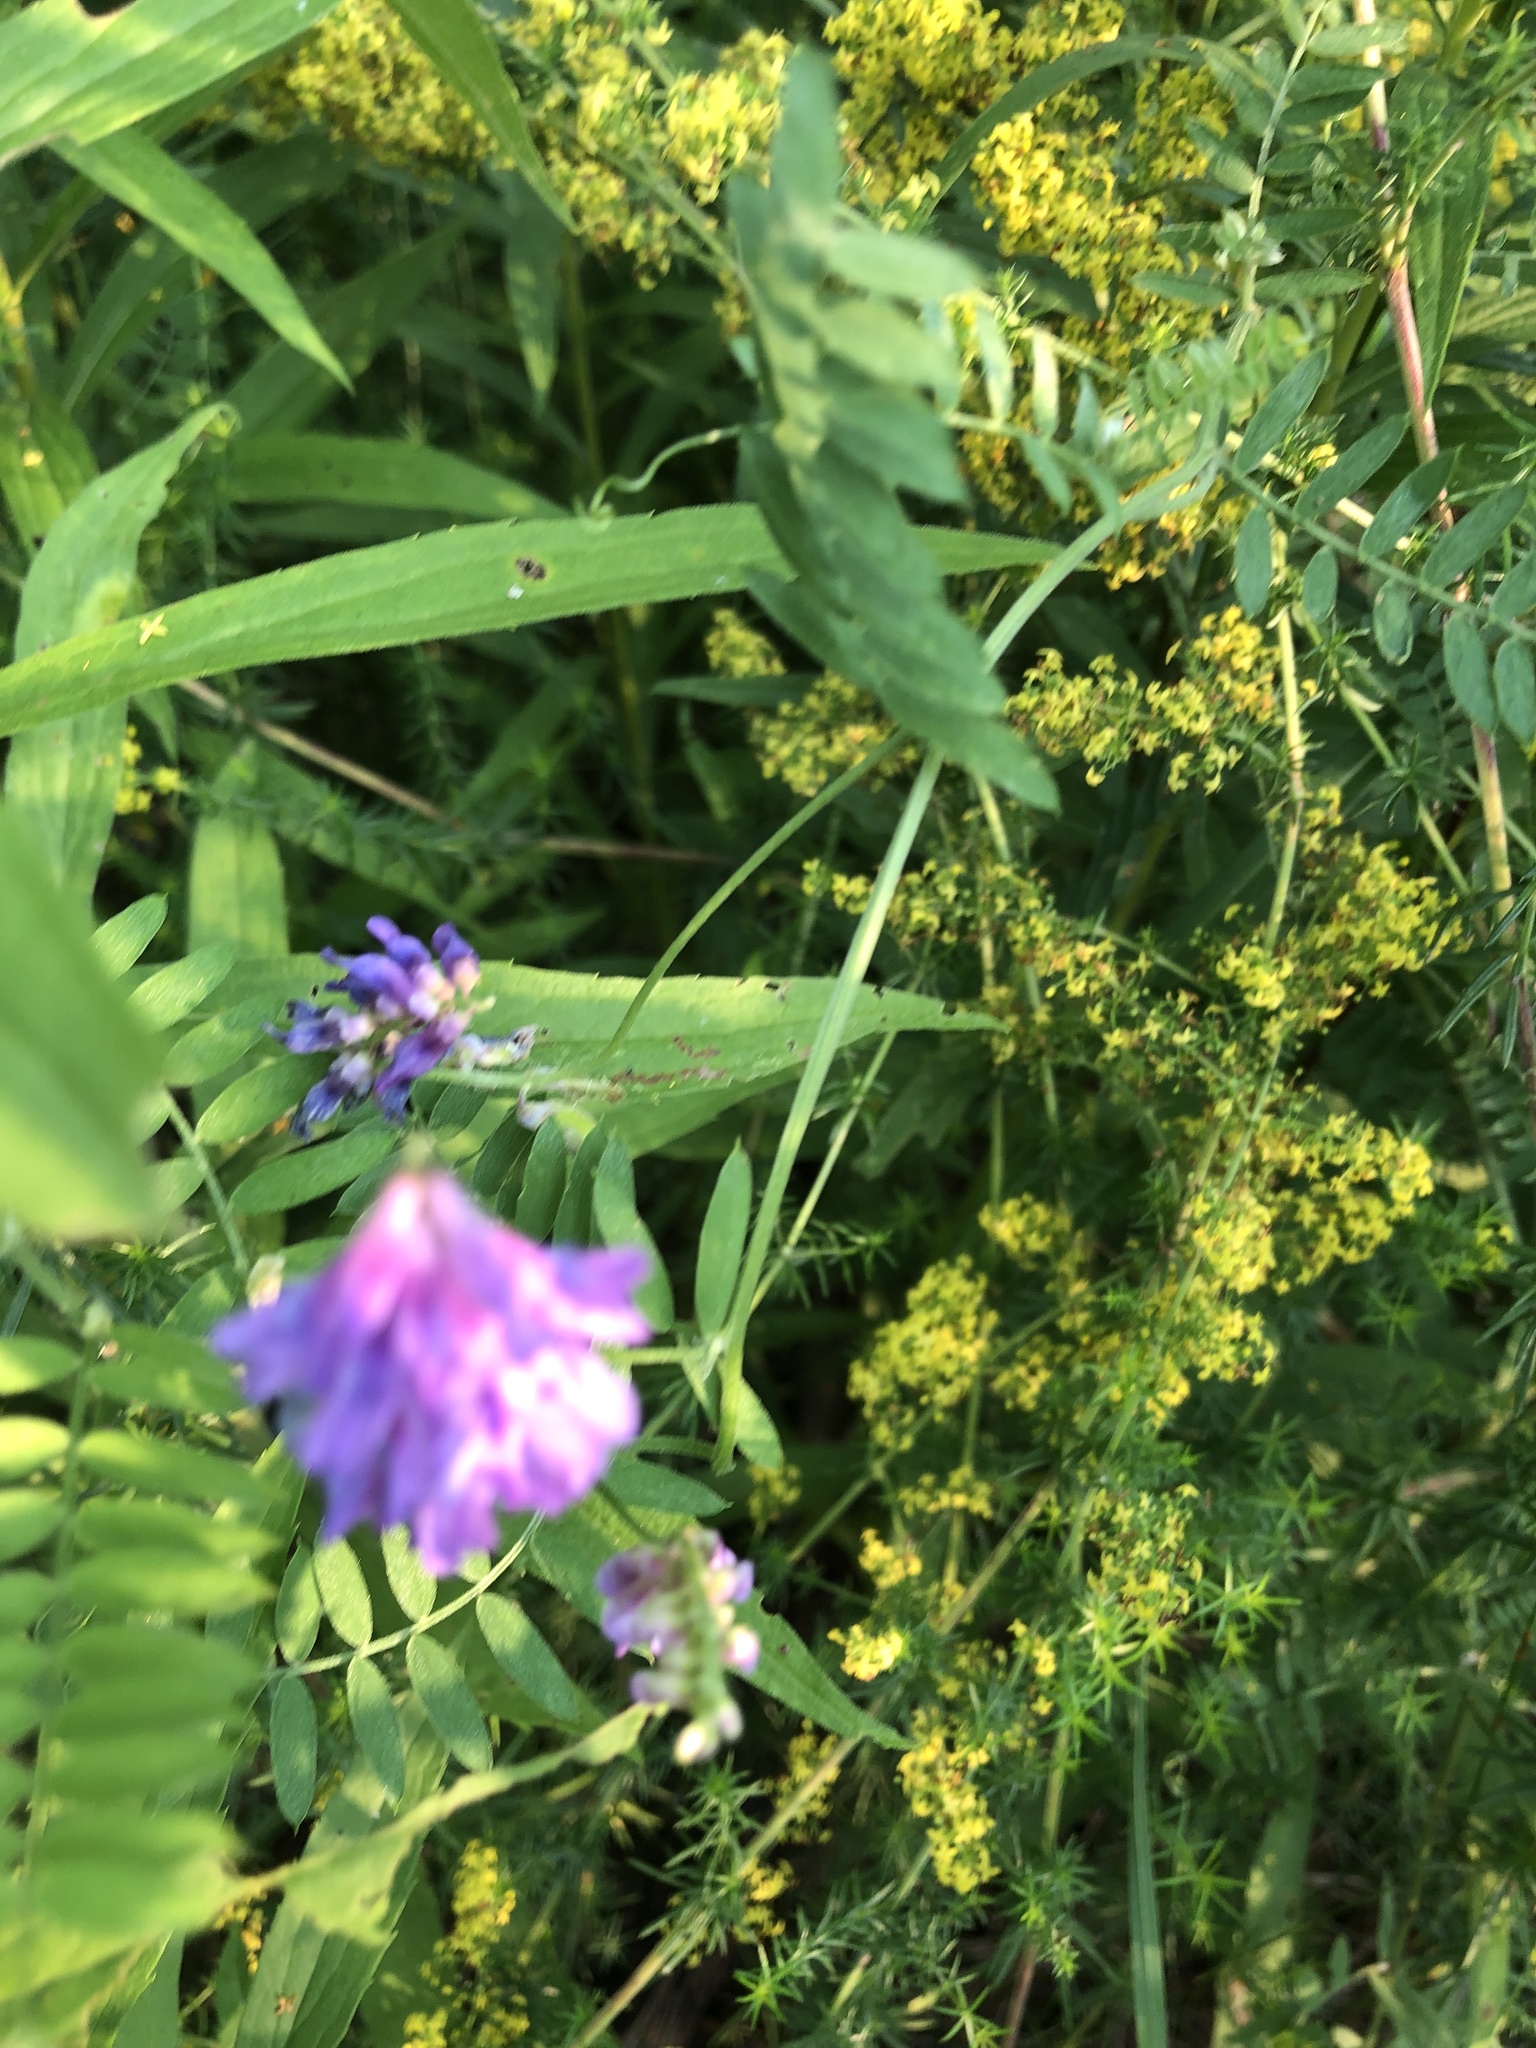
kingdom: Plantae
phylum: Tracheophyta
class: Magnoliopsida
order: Fabales
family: Fabaceae
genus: Vicia
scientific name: Vicia cracca
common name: Bird vetch
